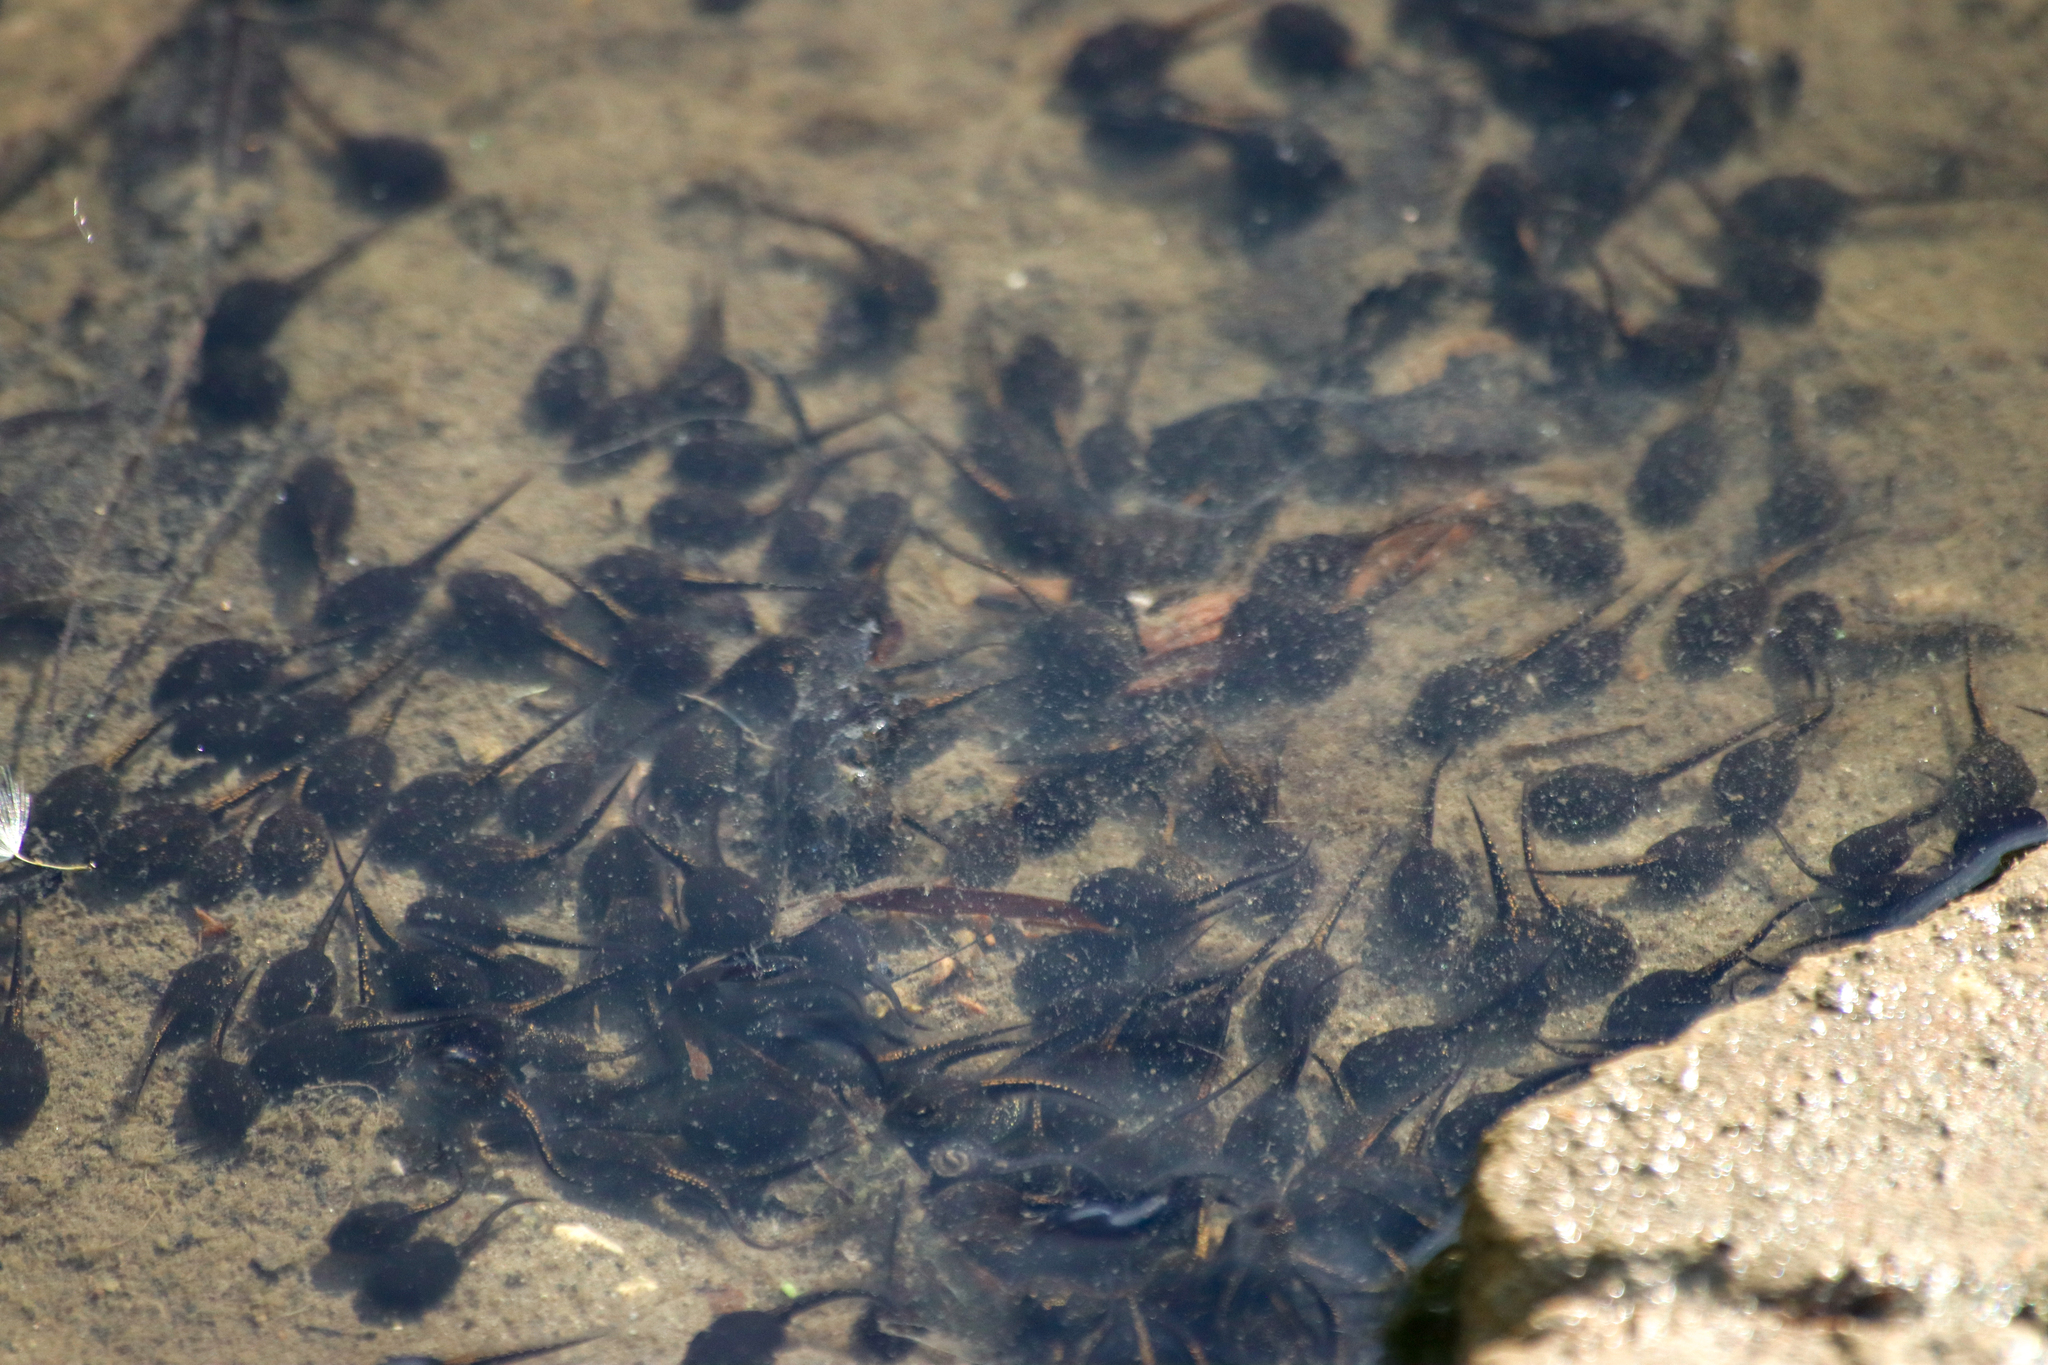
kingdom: Animalia
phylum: Chordata
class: Amphibia
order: Anura
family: Bufonidae
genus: Anaxyrus
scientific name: Anaxyrus americanus
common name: American toad
